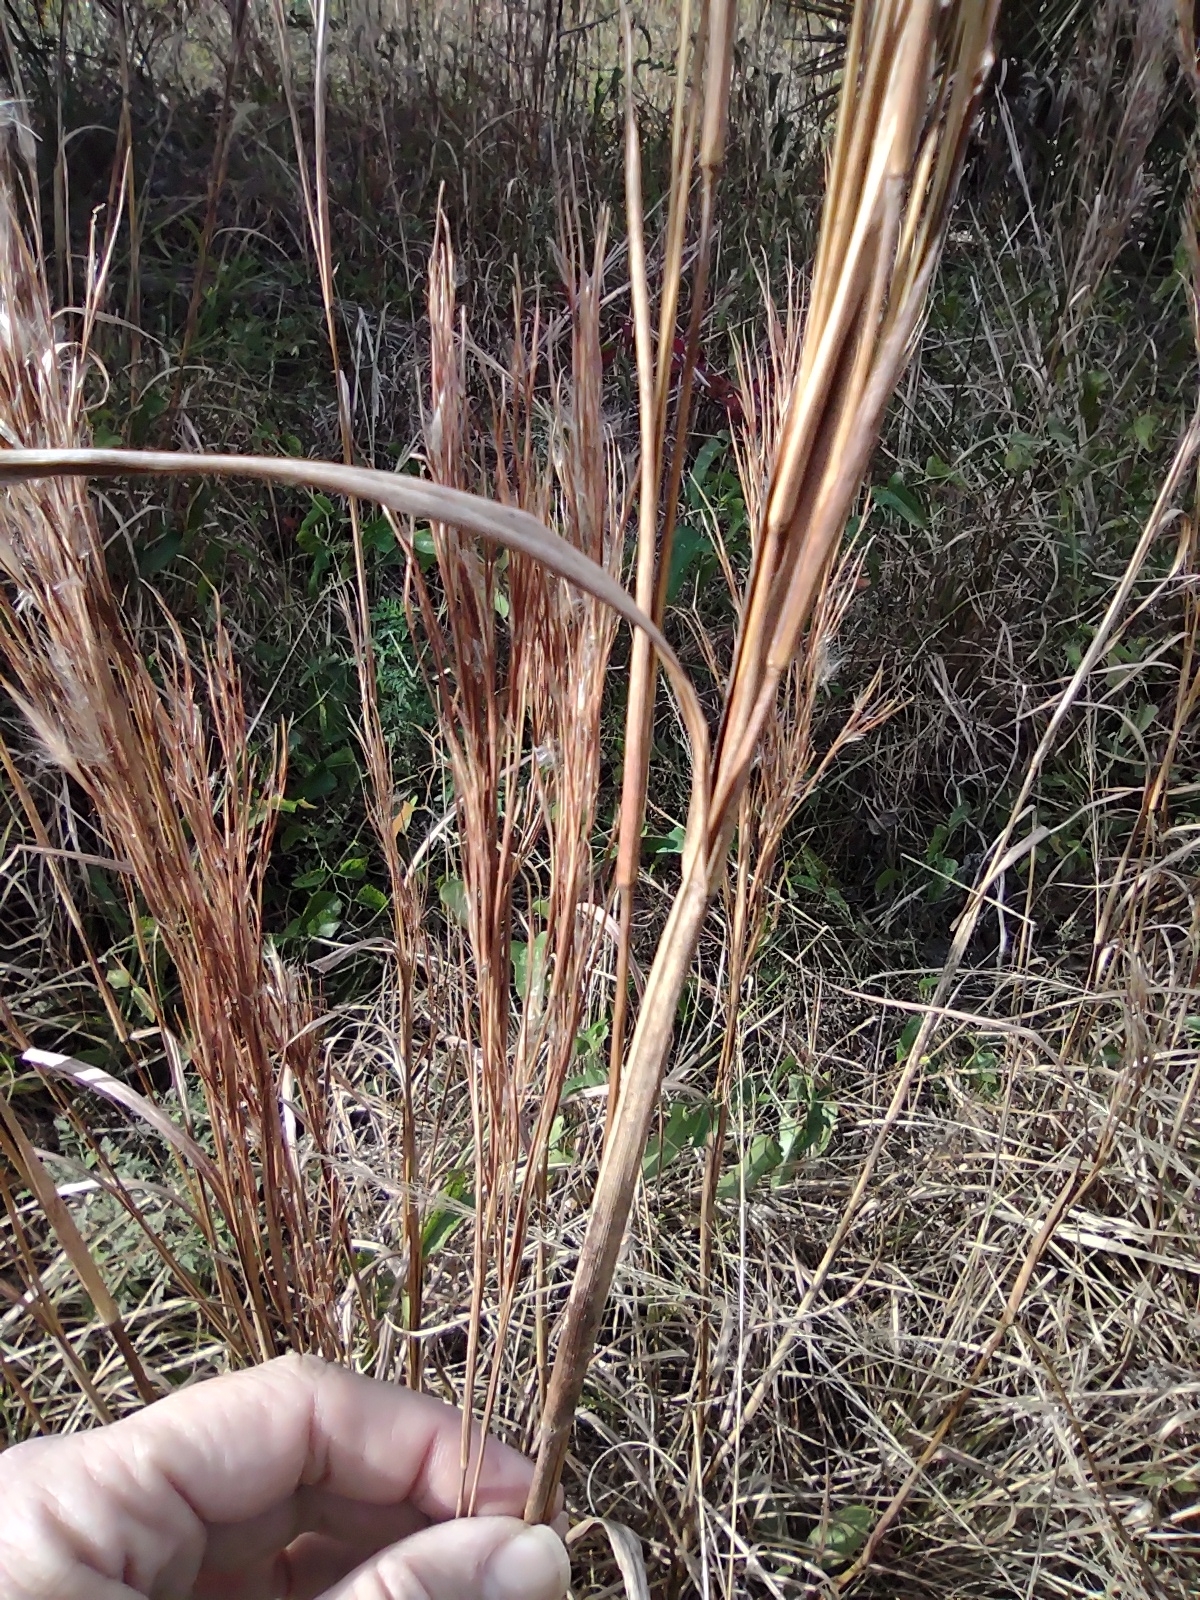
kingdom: Plantae
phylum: Tracheophyta
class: Liliopsida
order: Poales
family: Poaceae
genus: Andropogon
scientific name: Andropogon tenuispatheus
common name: Bushy bluestem
